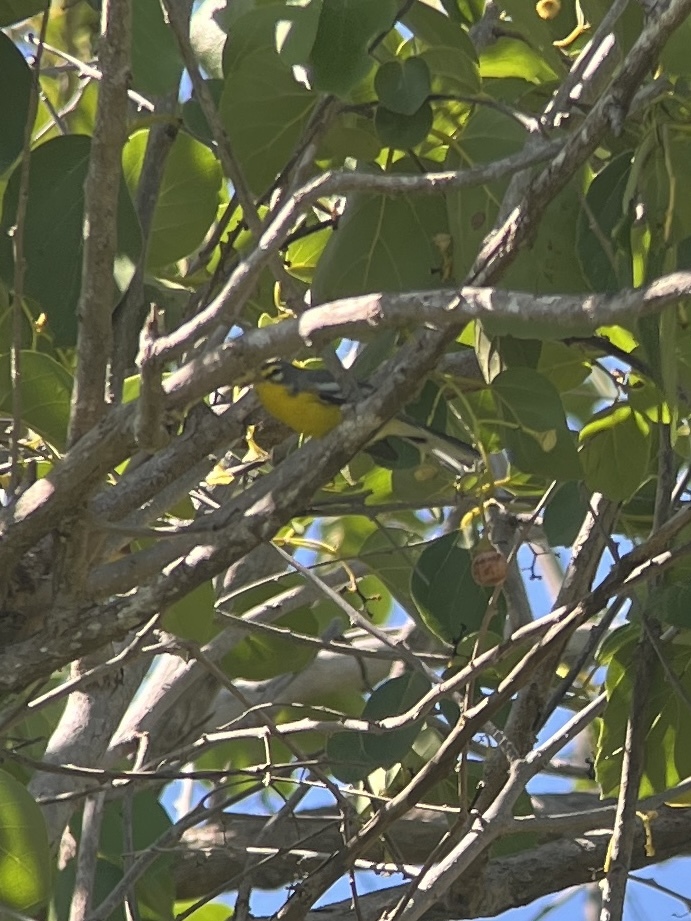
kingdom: Animalia
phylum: Chordata
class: Aves
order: Passeriformes
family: Parulidae
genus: Setophaga
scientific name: Setophaga adelaidae
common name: Adelaide's warbler
